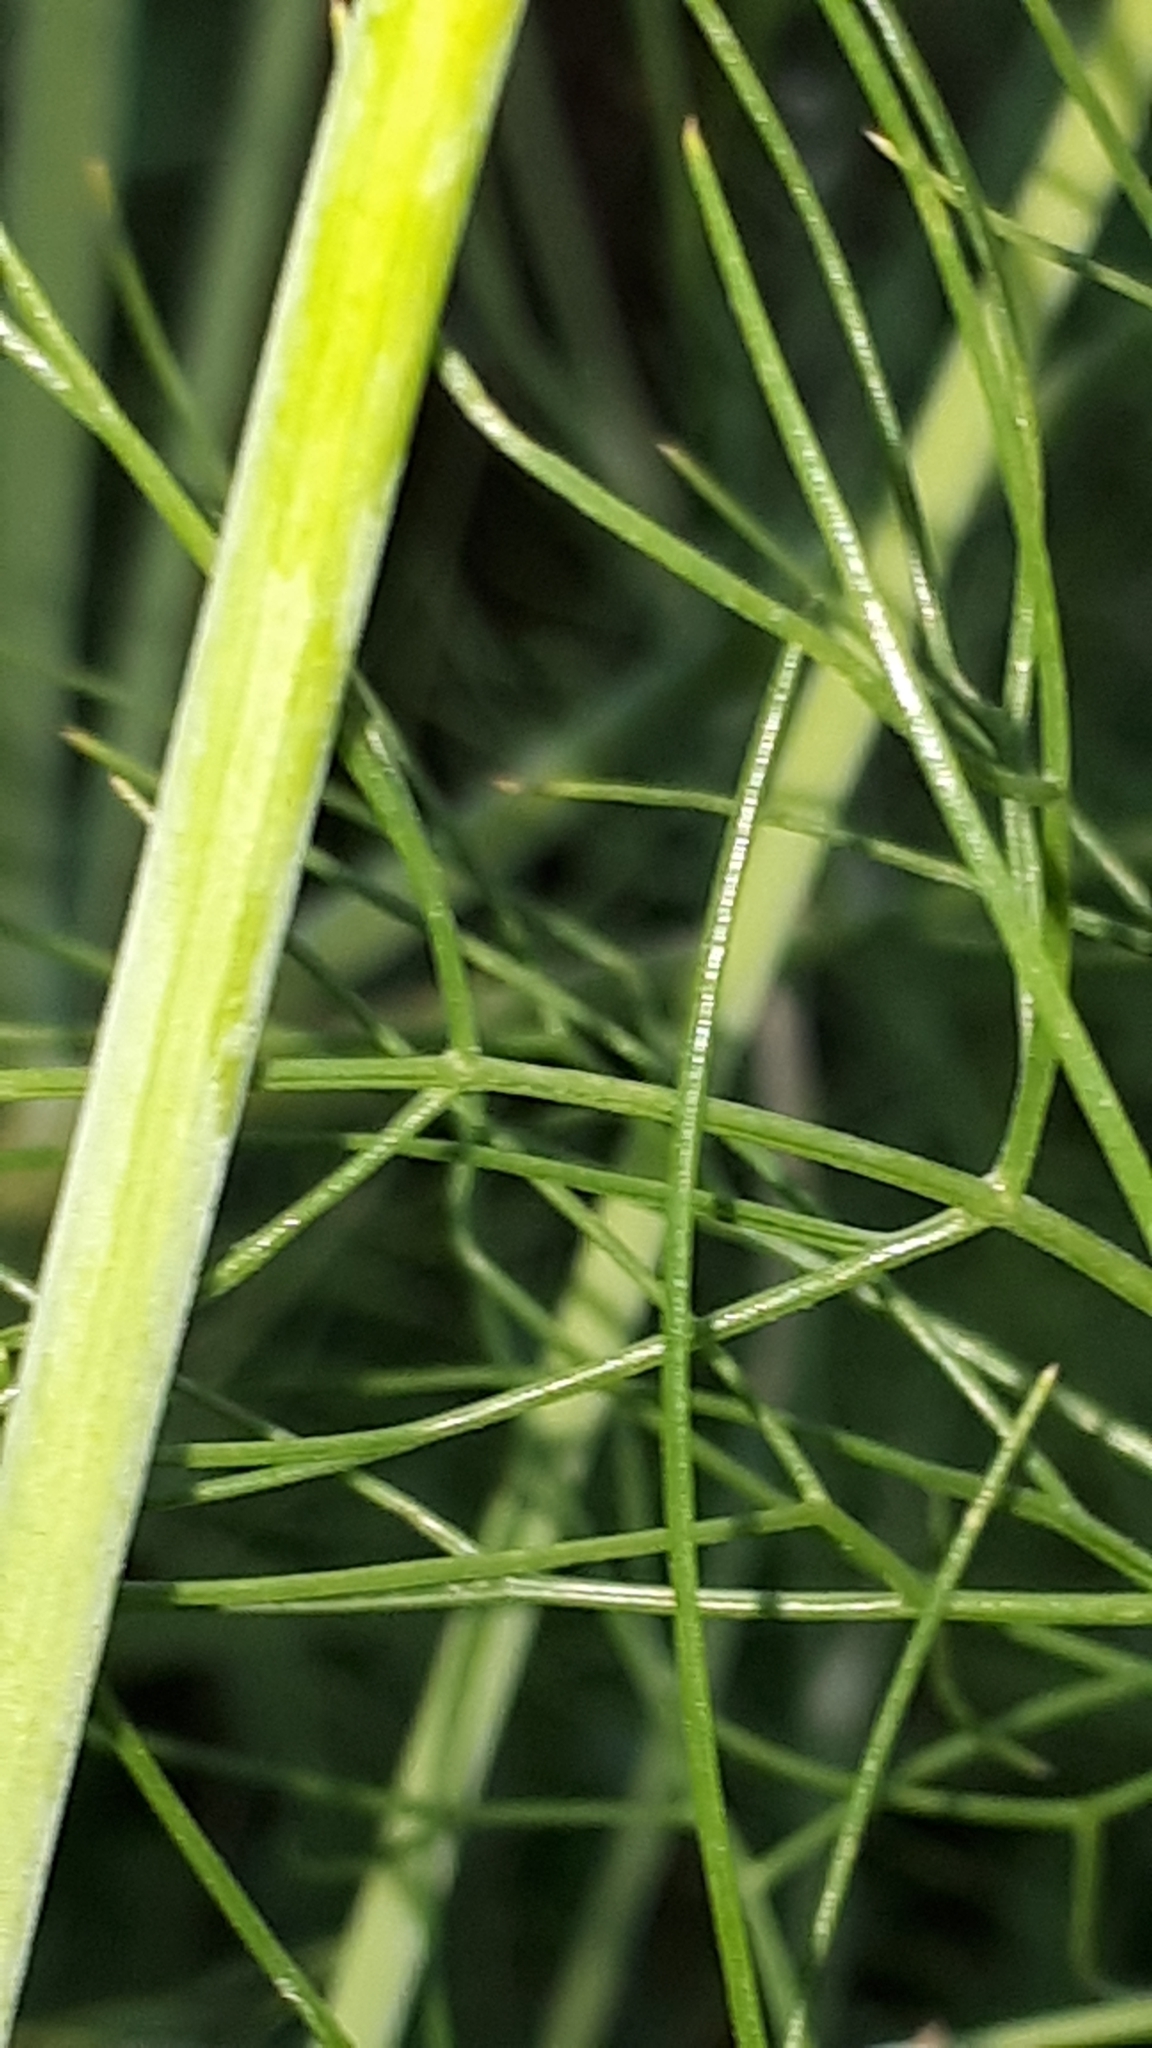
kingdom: Plantae
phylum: Tracheophyta
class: Magnoliopsida
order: Apiales
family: Apiaceae
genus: Anethum
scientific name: Anethum graveolens
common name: Dill
